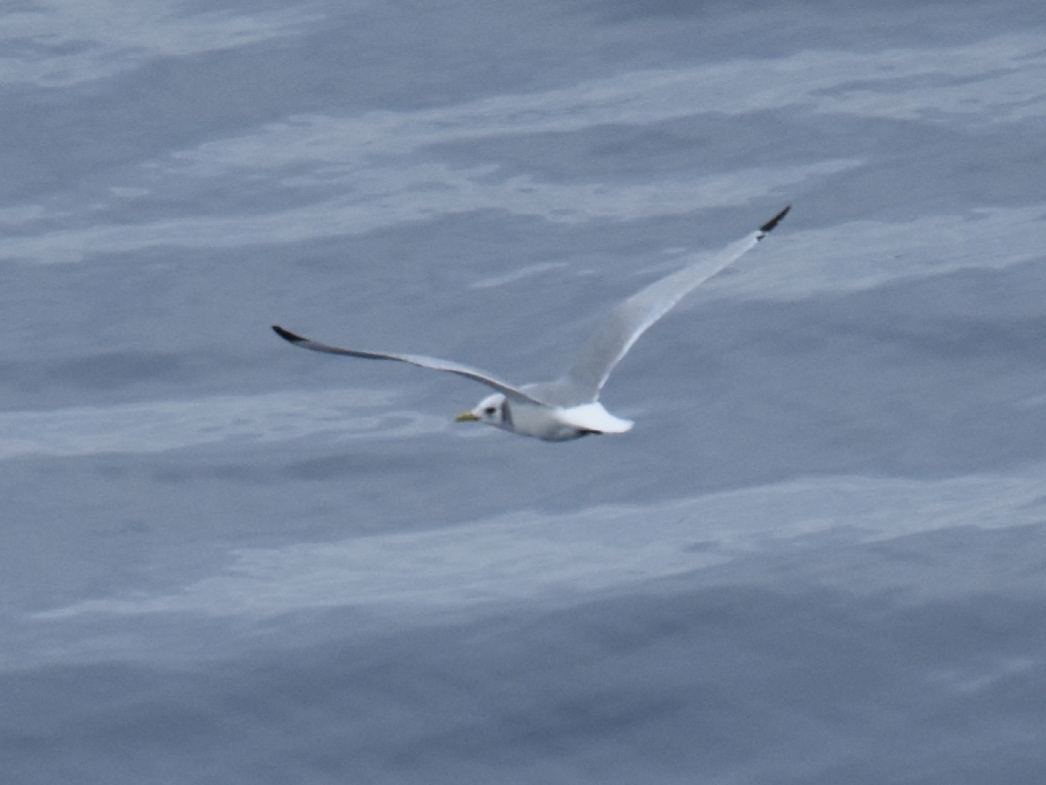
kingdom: Animalia
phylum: Chordata
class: Aves
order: Charadriiformes
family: Laridae
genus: Rissa
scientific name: Rissa tridactyla
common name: Black-legged kittiwake
